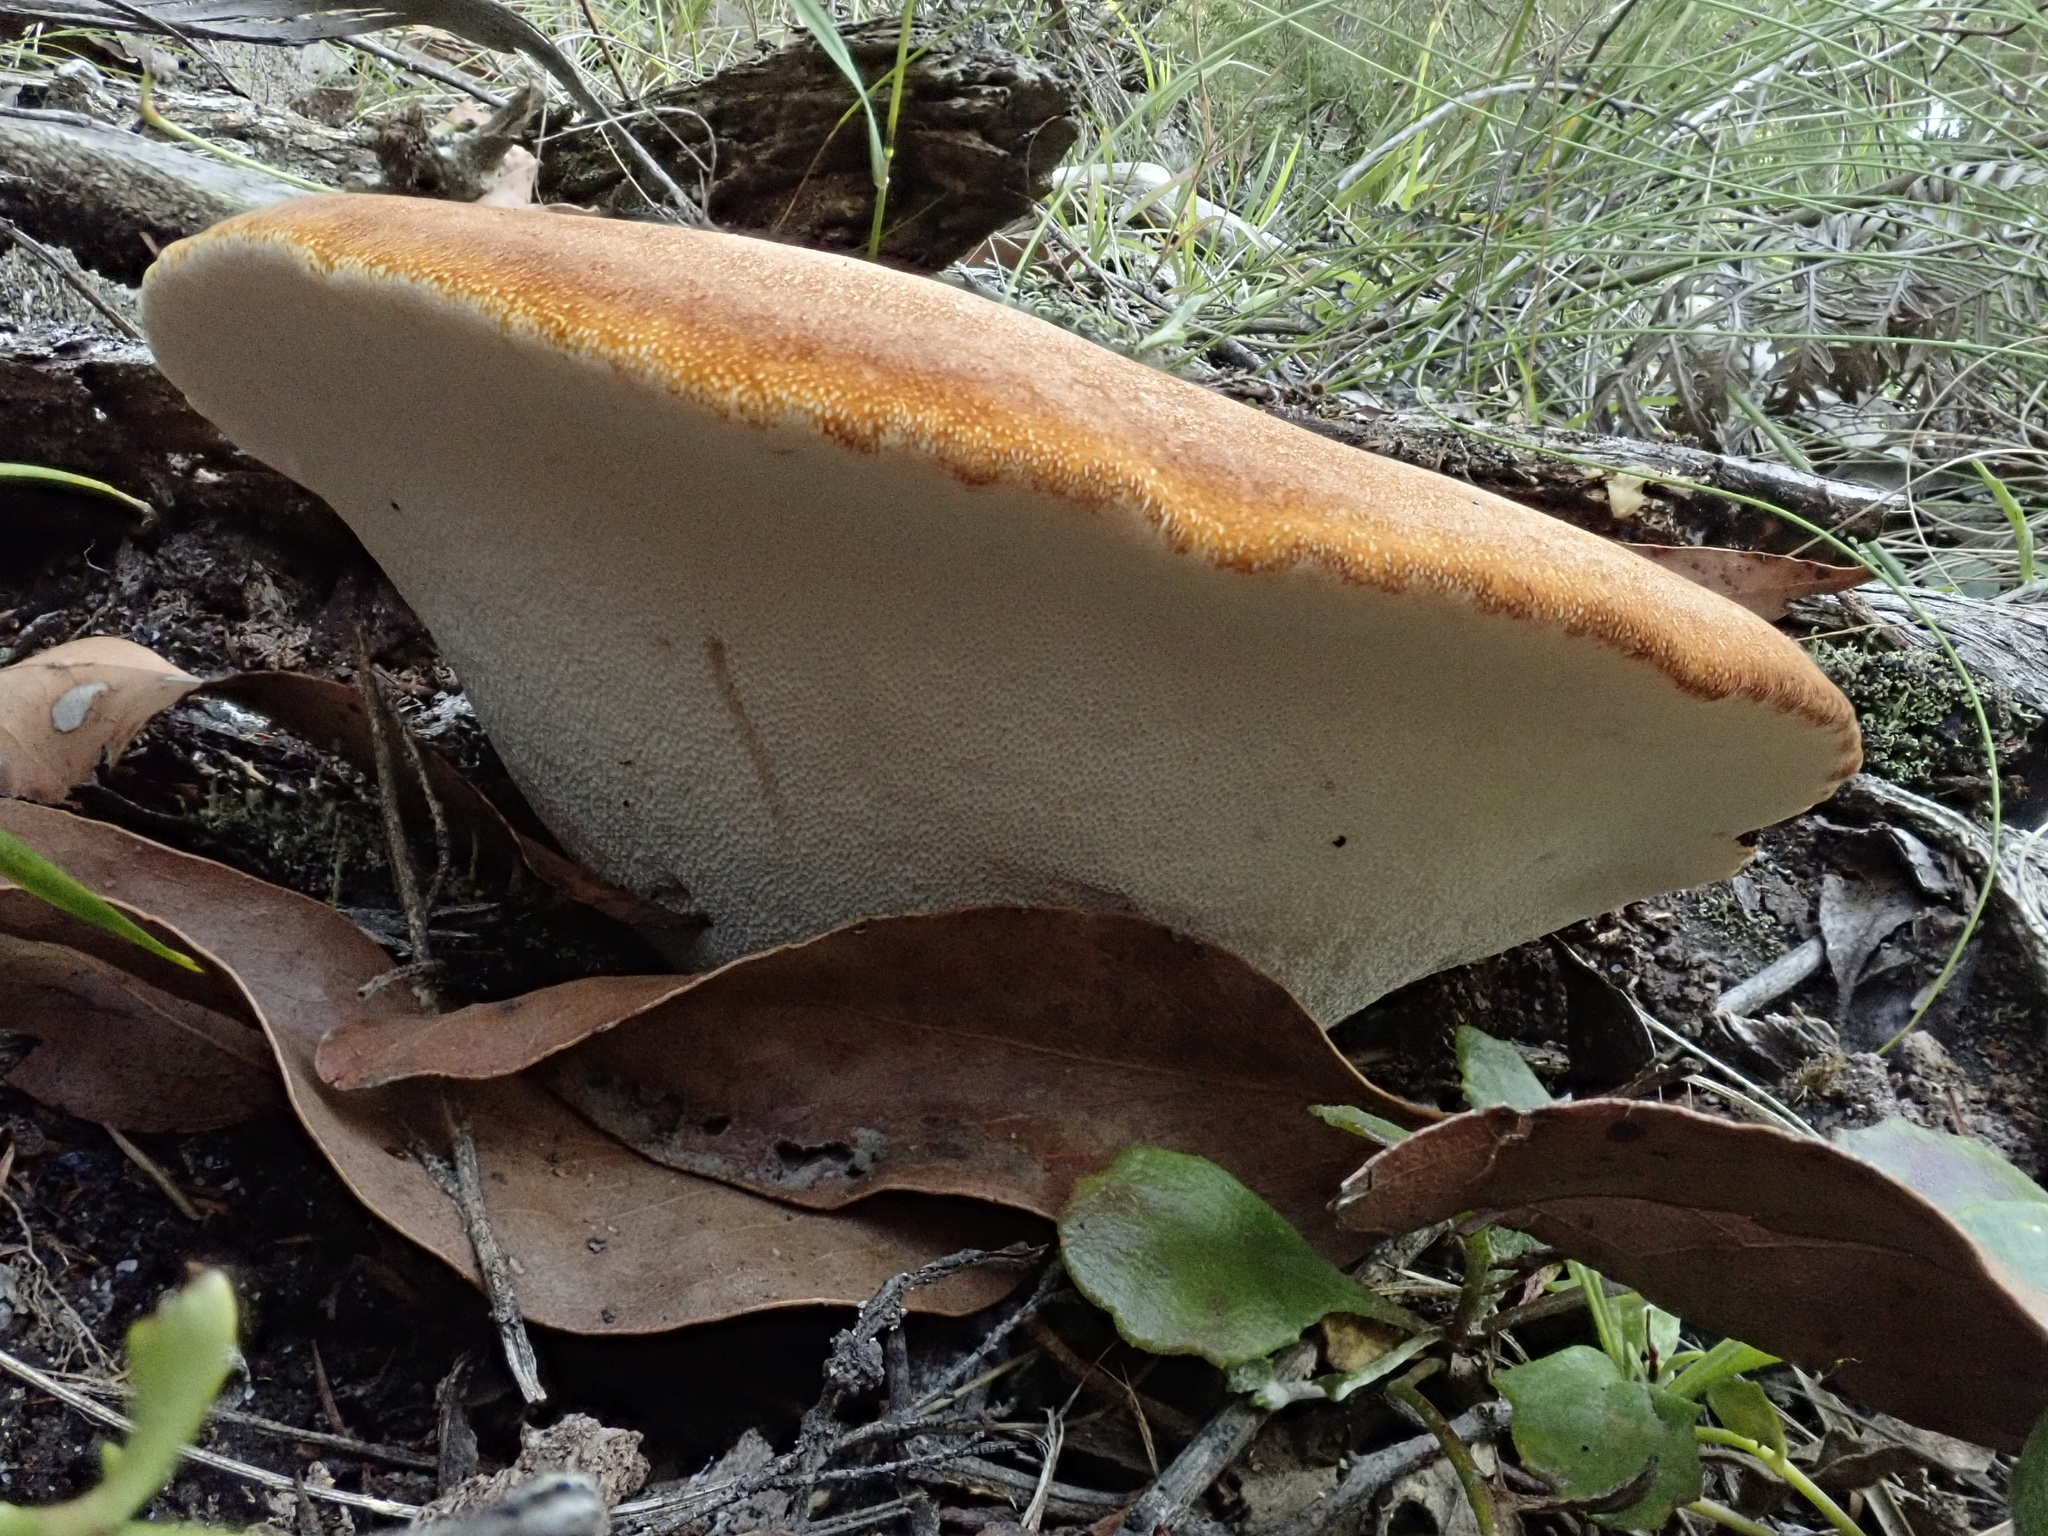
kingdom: Fungi
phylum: Basidiomycota
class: Agaricomycetes
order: Polyporales
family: Fomitopsidaceae
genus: Fomitopsis
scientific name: Fomitopsis
